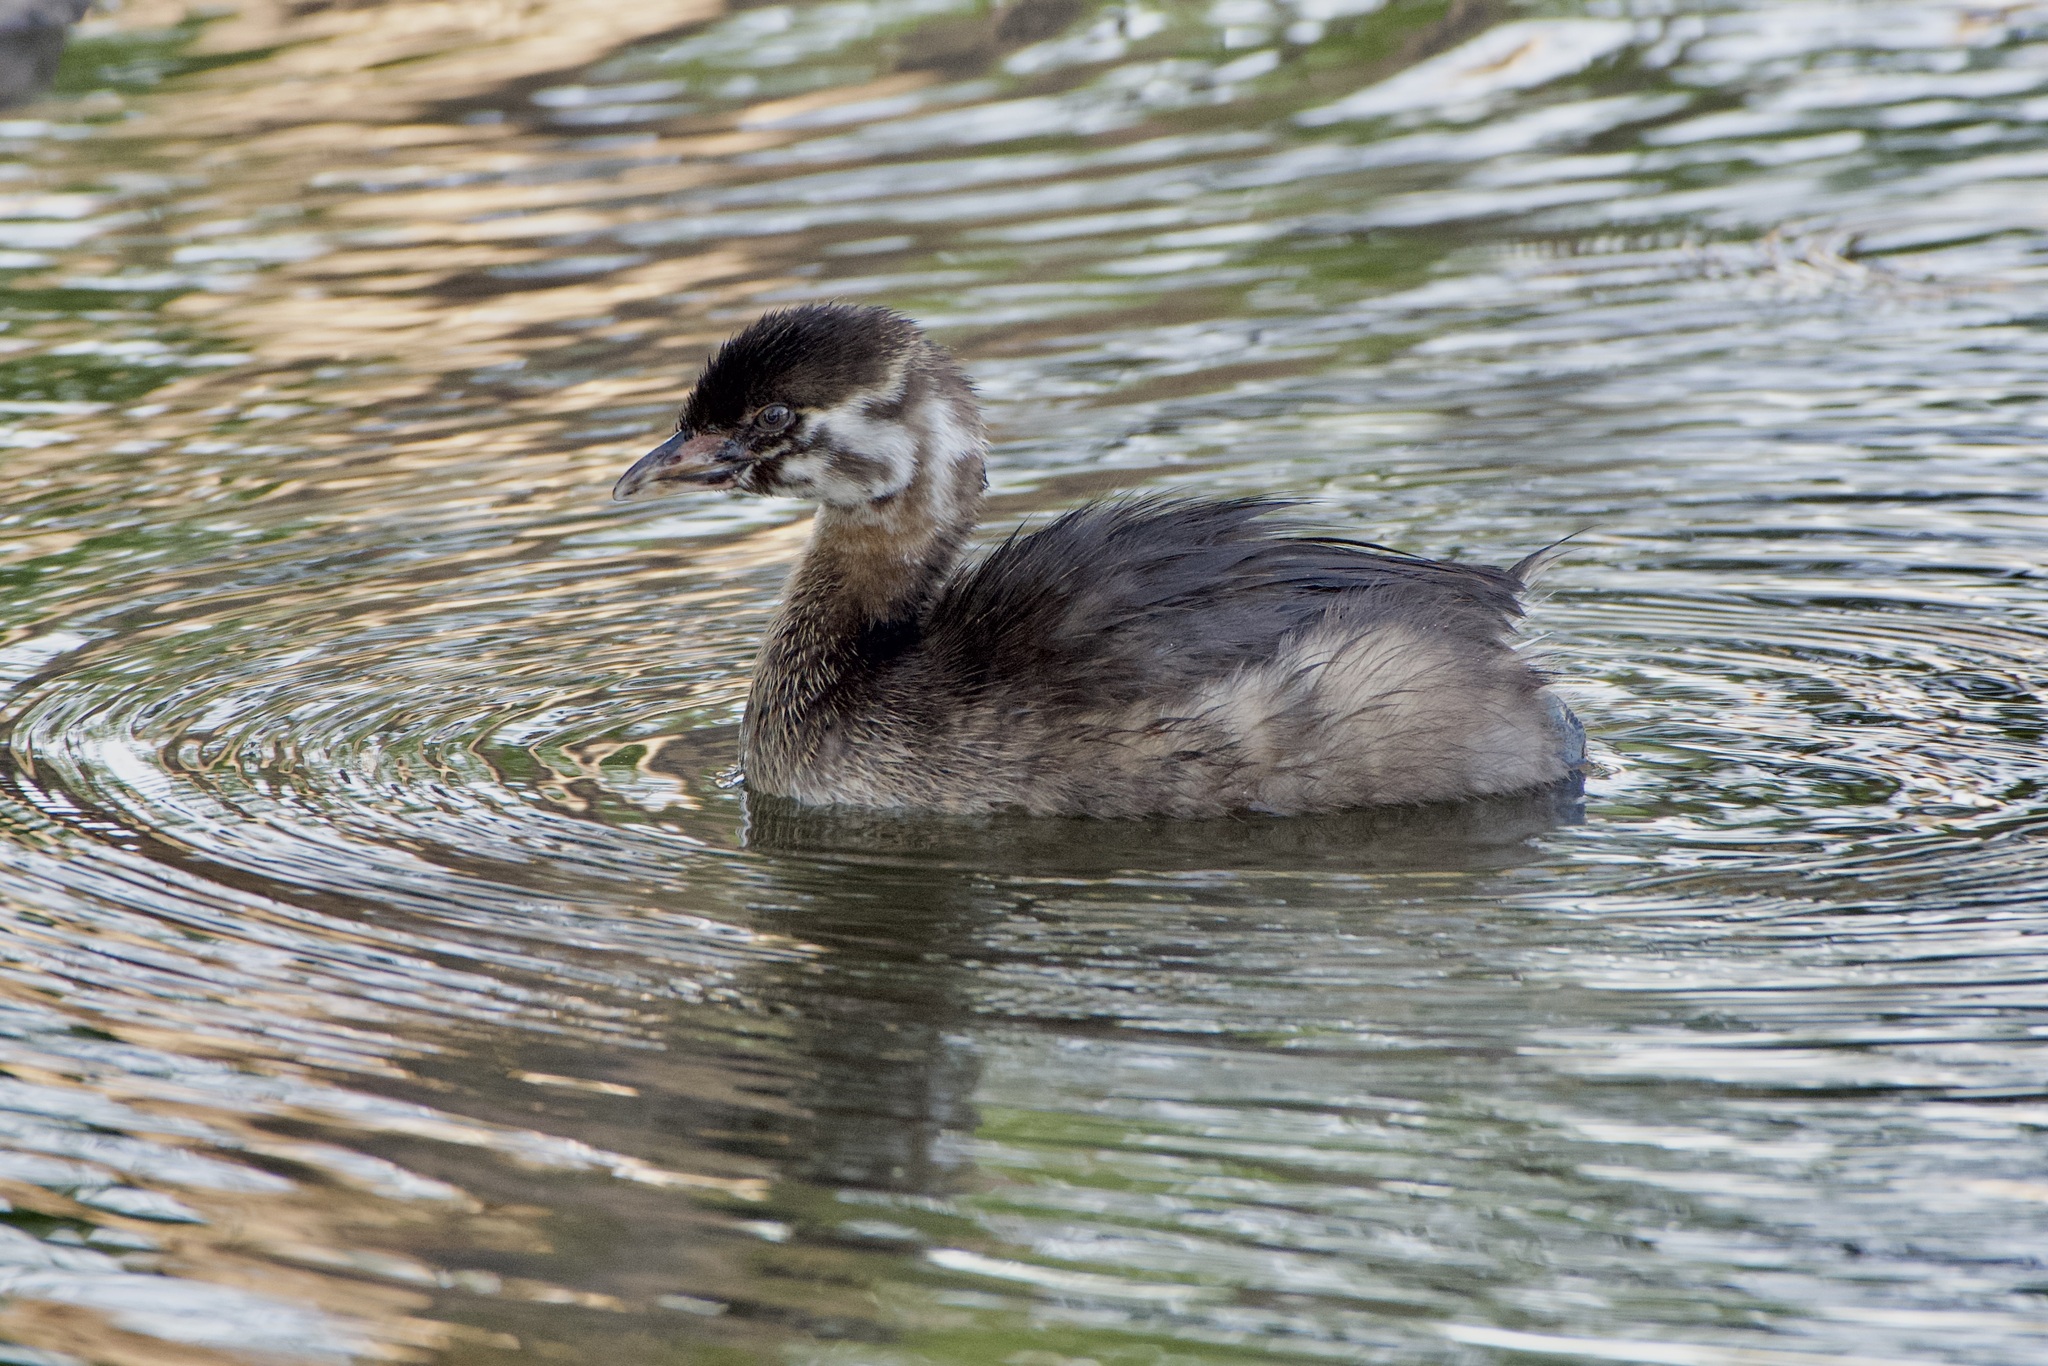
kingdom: Animalia
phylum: Chordata
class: Aves
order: Podicipediformes
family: Podicipedidae
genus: Podilymbus
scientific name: Podilymbus podiceps
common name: Pied-billed grebe
